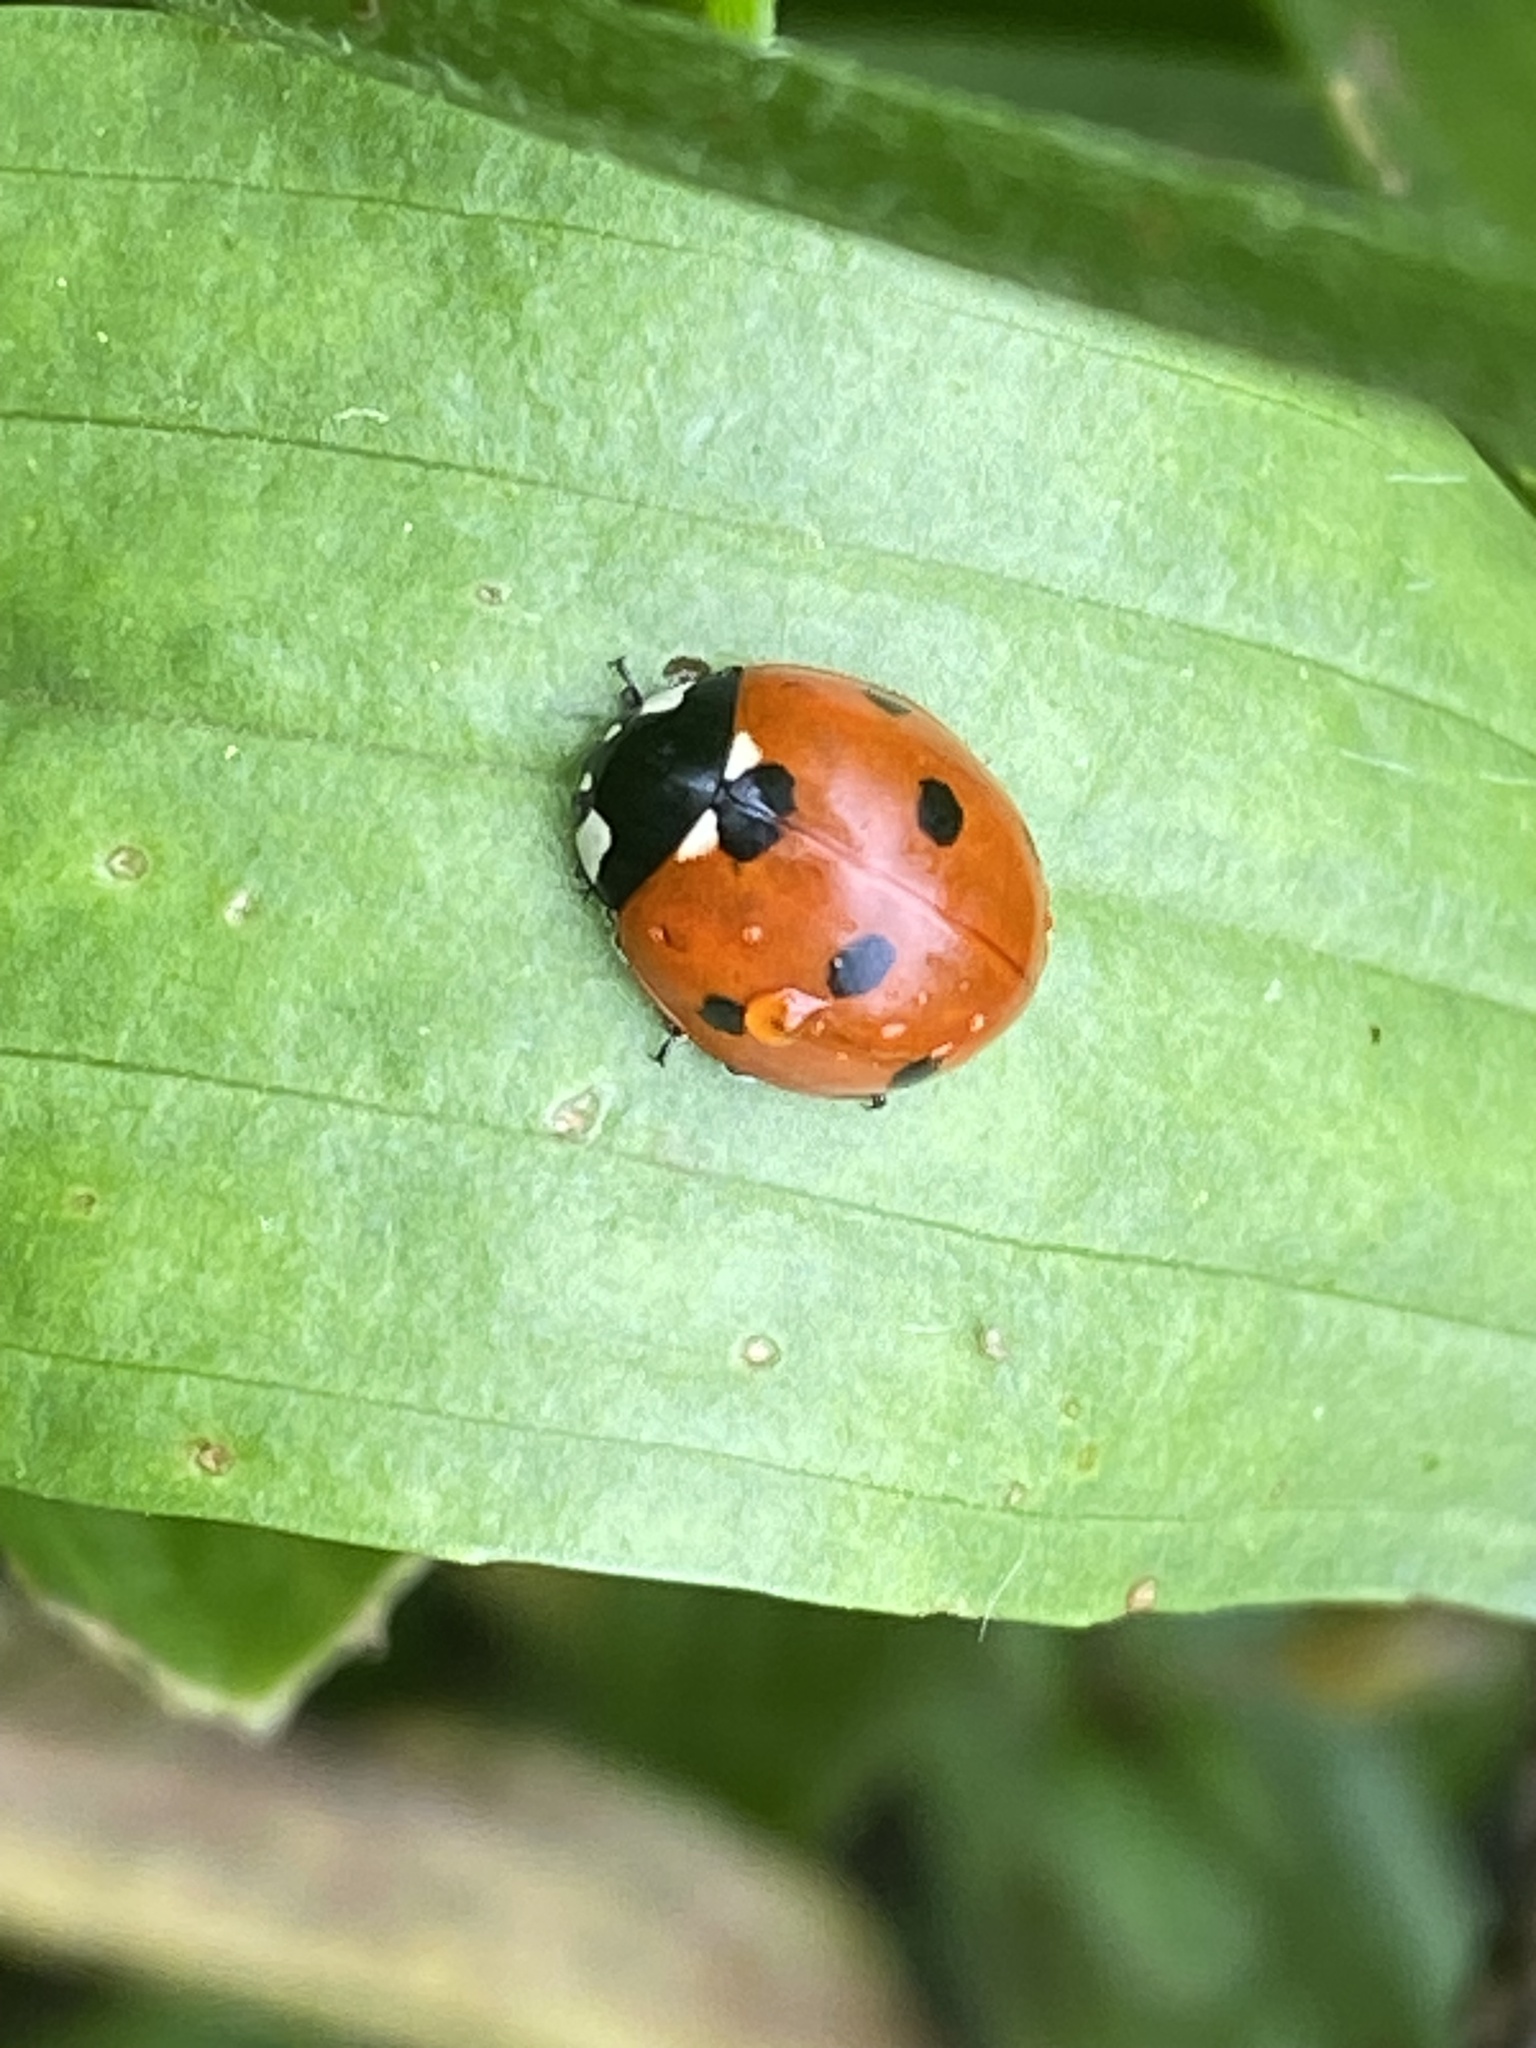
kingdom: Animalia
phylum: Arthropoda
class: Insecta
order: Coleoptera
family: Coccinellidae
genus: Coccinella
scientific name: Coccinella septempunctata
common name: Sevenspotted lady beetle
